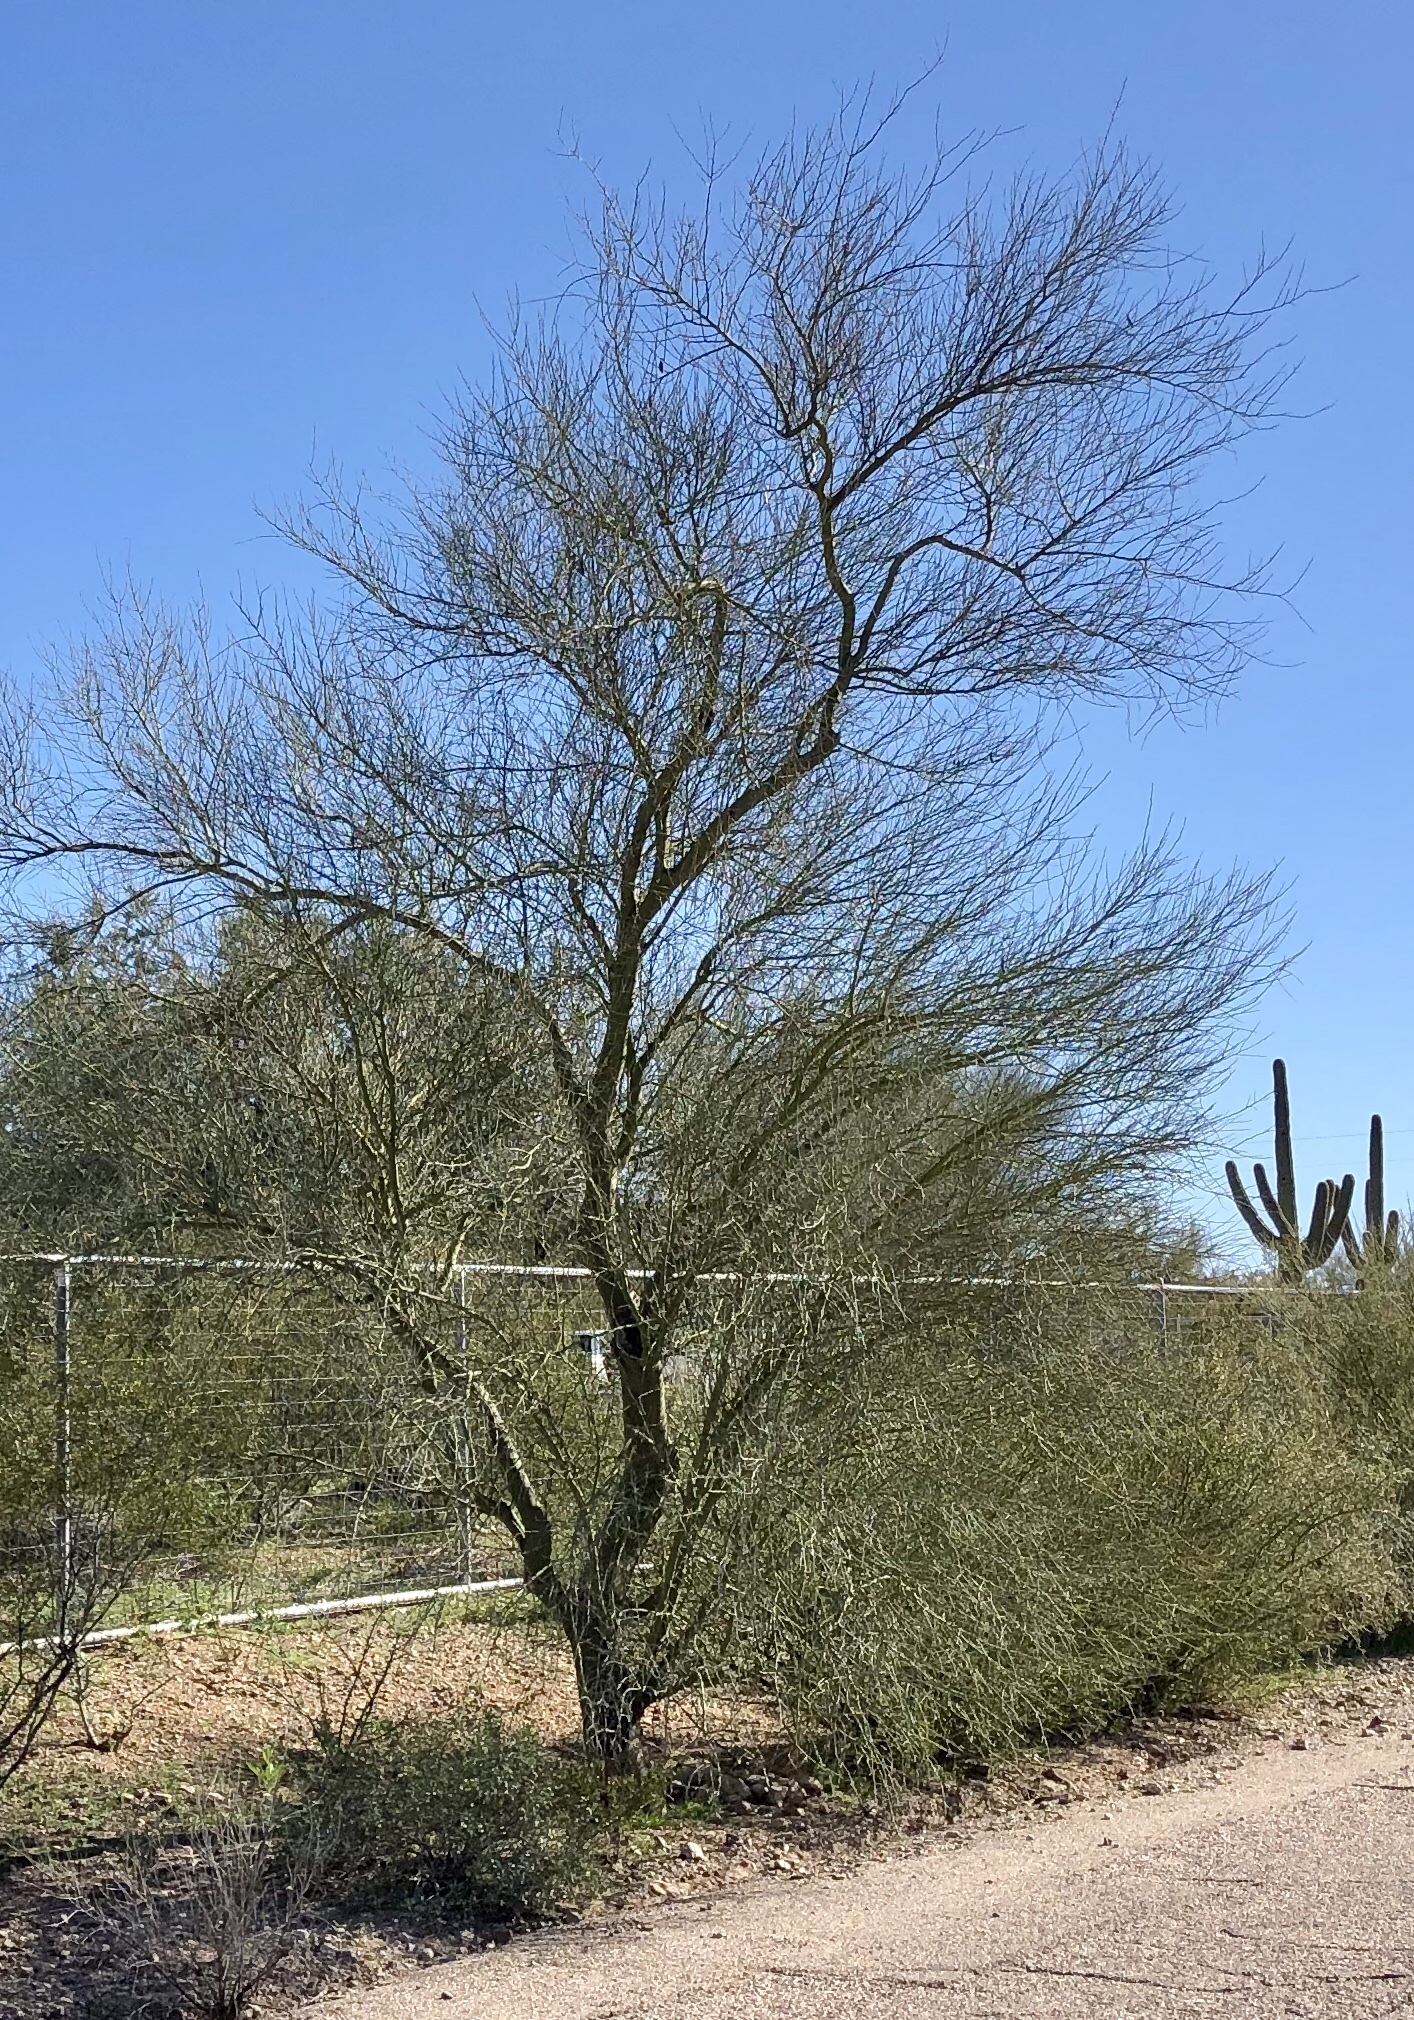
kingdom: Plantae
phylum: Tracheophyta
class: Magnoliopsida
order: Fabales
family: Fabaceae
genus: Parkinsonia
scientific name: Parkinsonia microphylla
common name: Yellow paloverde
